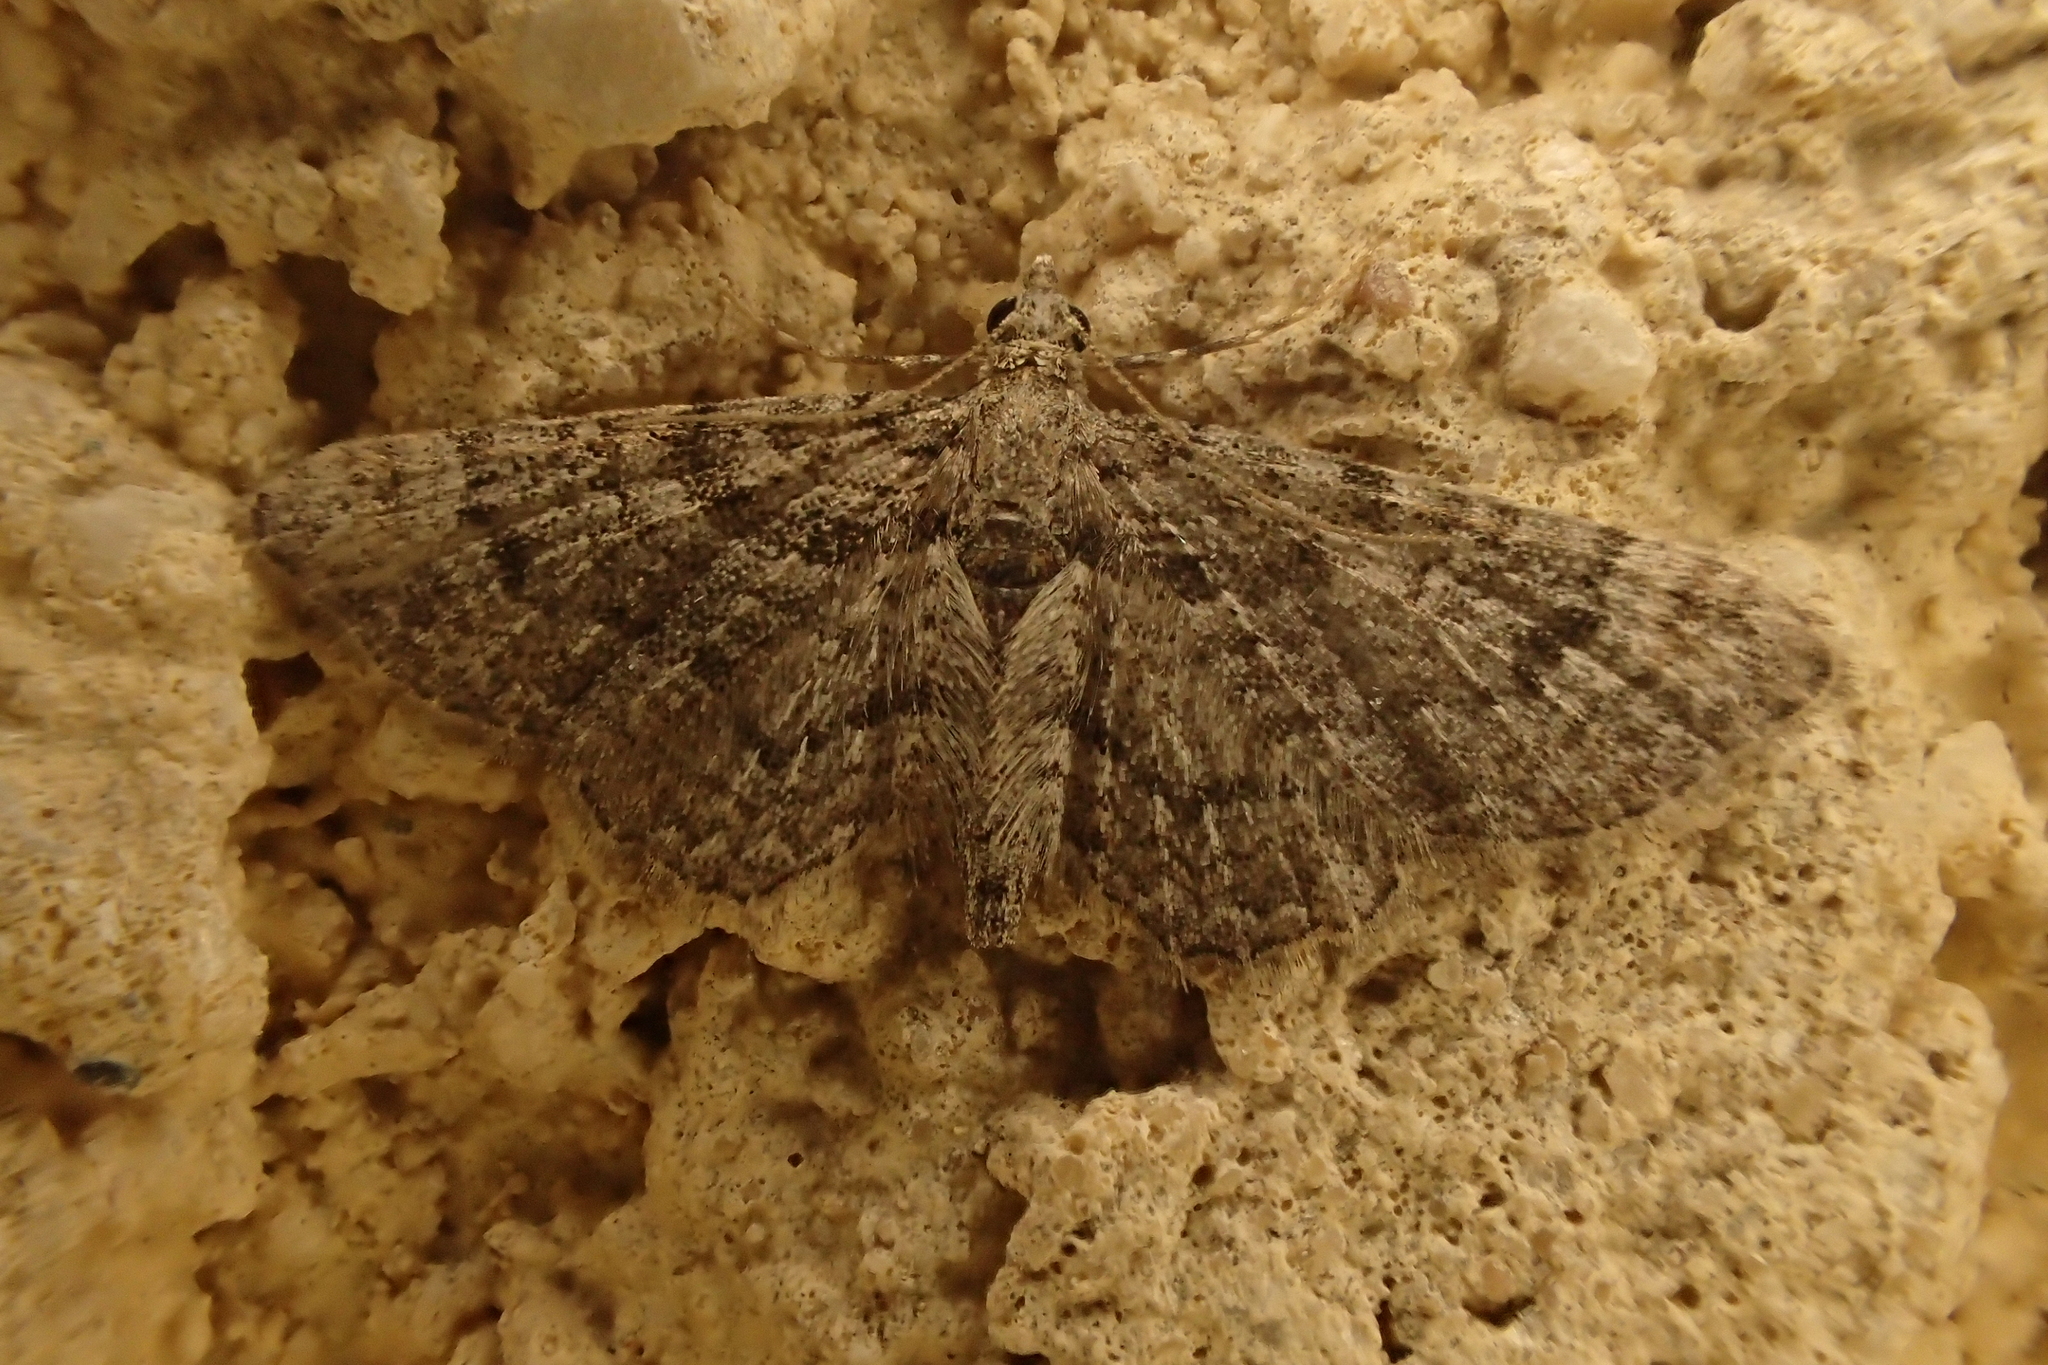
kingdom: Animalia
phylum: Arthropoda
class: Insecta
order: Lepidoptera
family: Geometridae
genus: Gymnoscelis
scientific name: Gymnoscelis rufifasciata
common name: Double-striped pug
